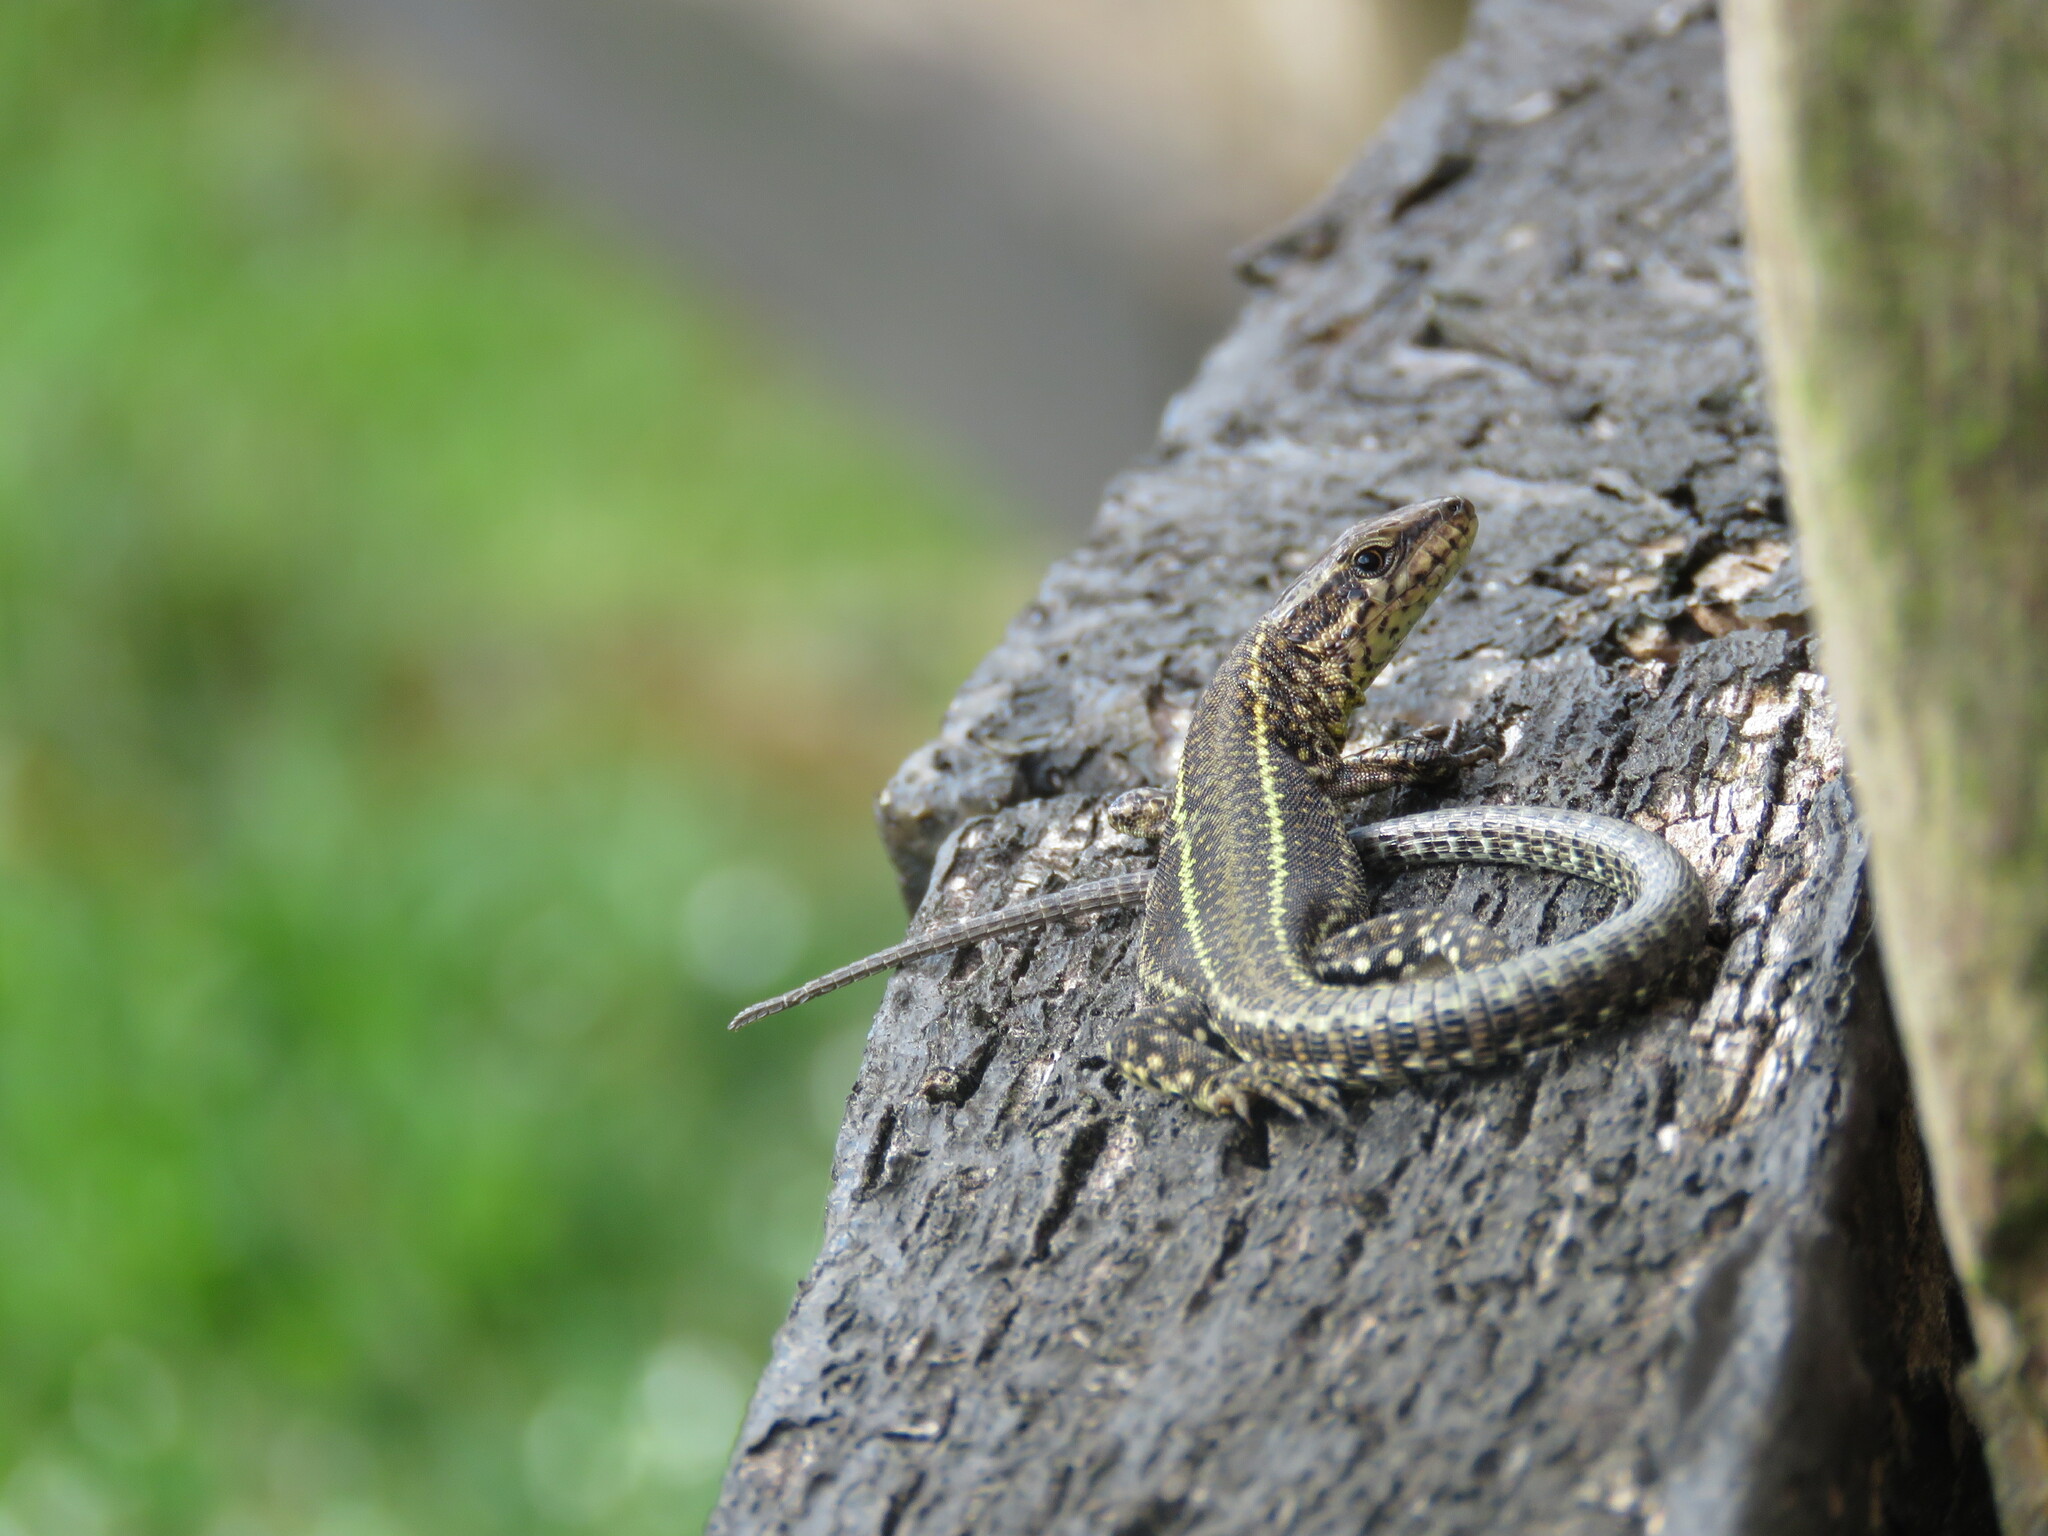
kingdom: Animalia
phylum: Chordata
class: Squamata
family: Lacertidae
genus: Podarcis
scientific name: Podarcis bocagei
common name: Bocage's wall lizard
